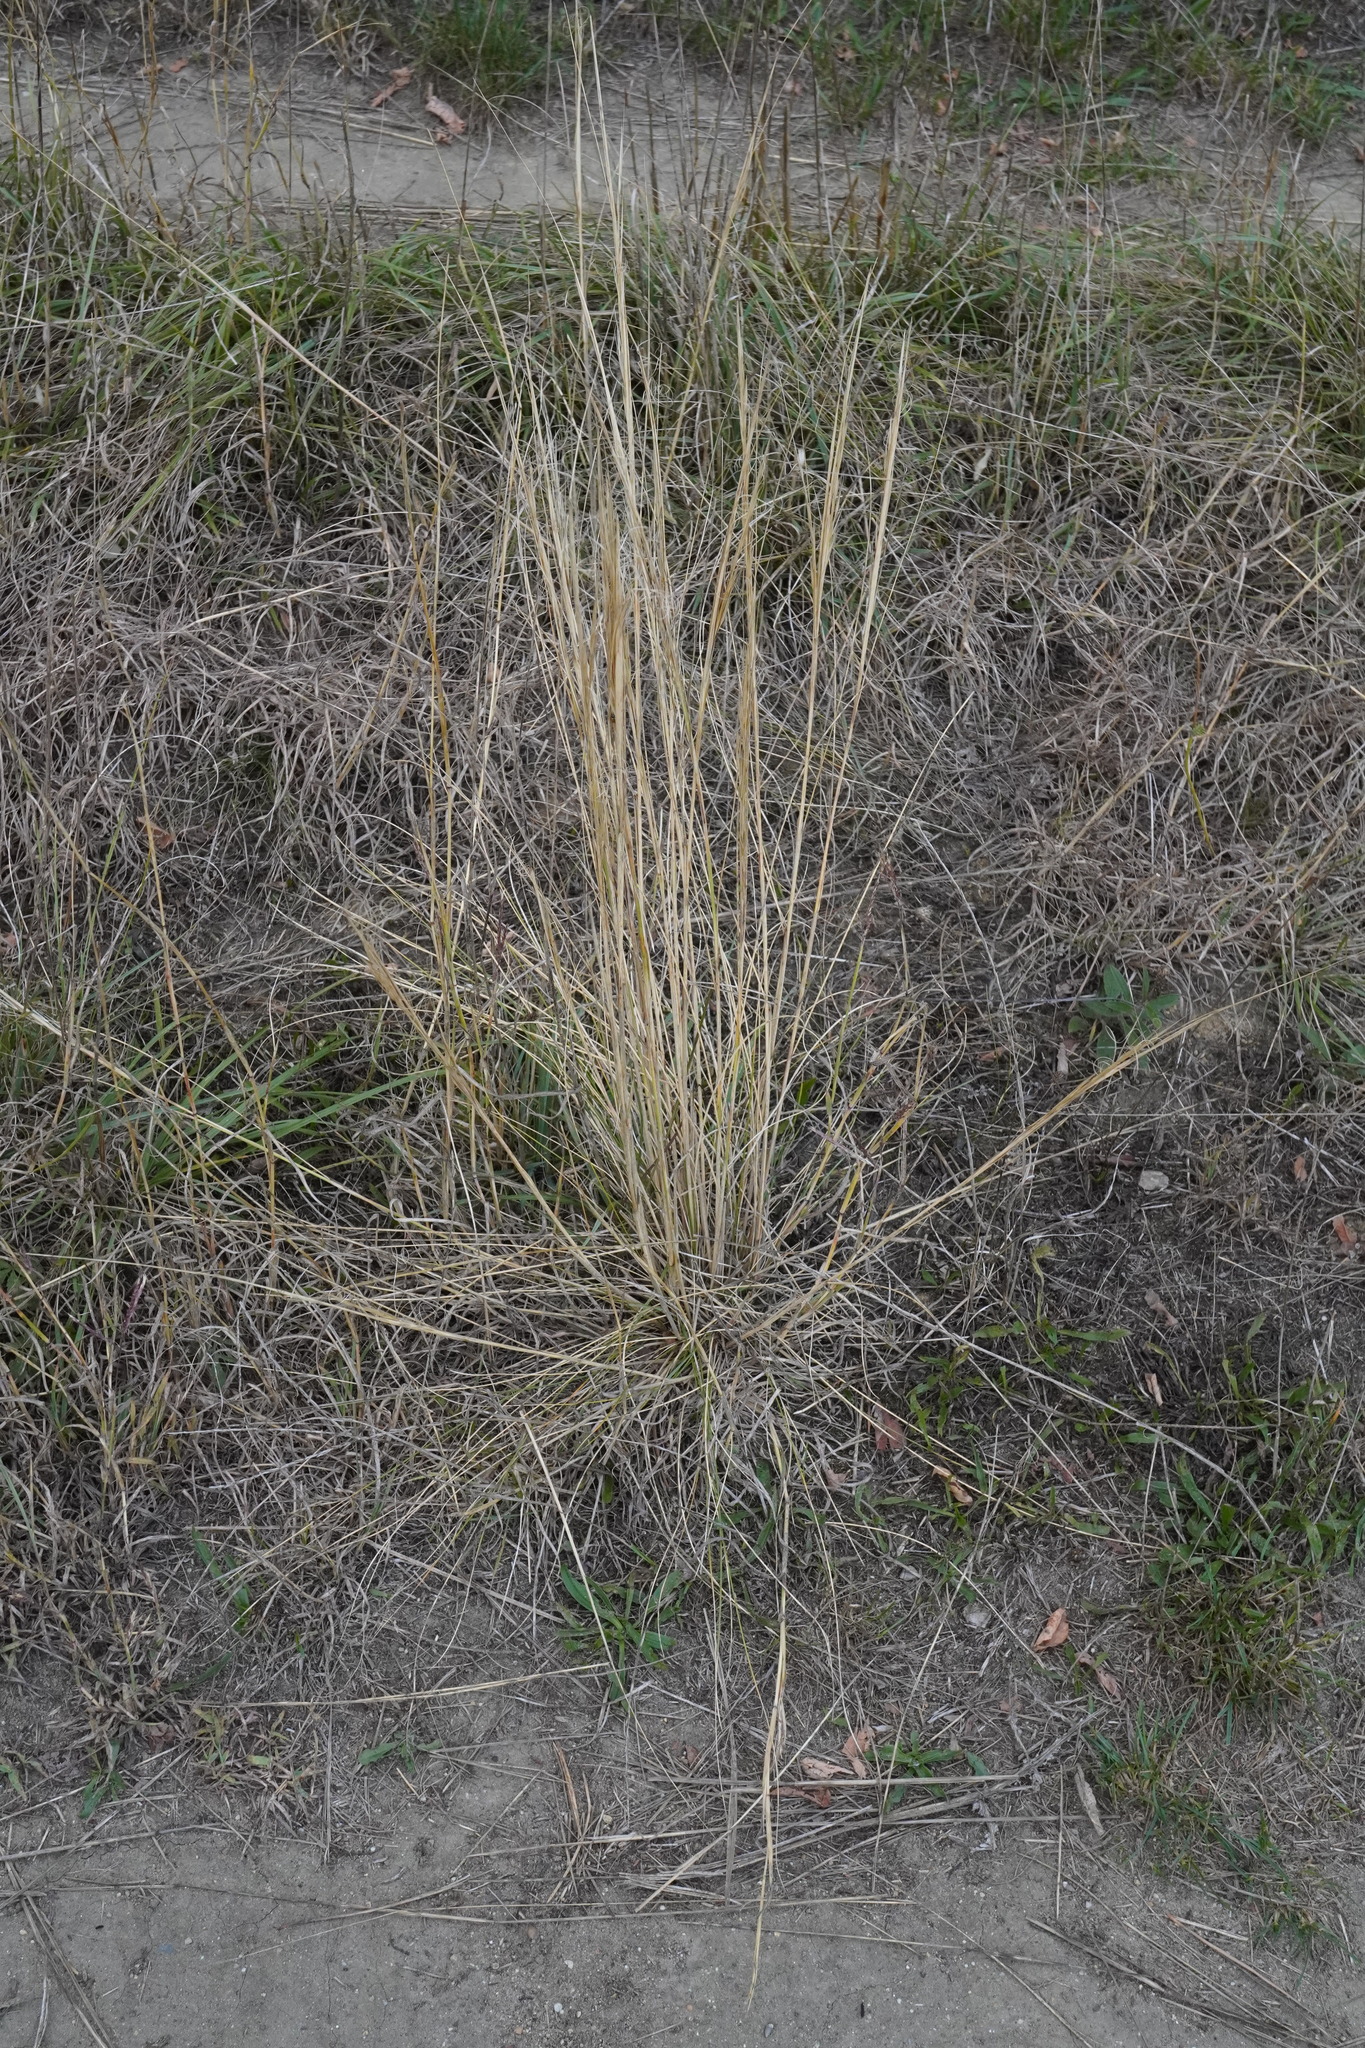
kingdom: Plantae
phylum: Tracheophyta
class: Liliopsida
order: Poales
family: Poaceae
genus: Stipa
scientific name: Stipa capillata
